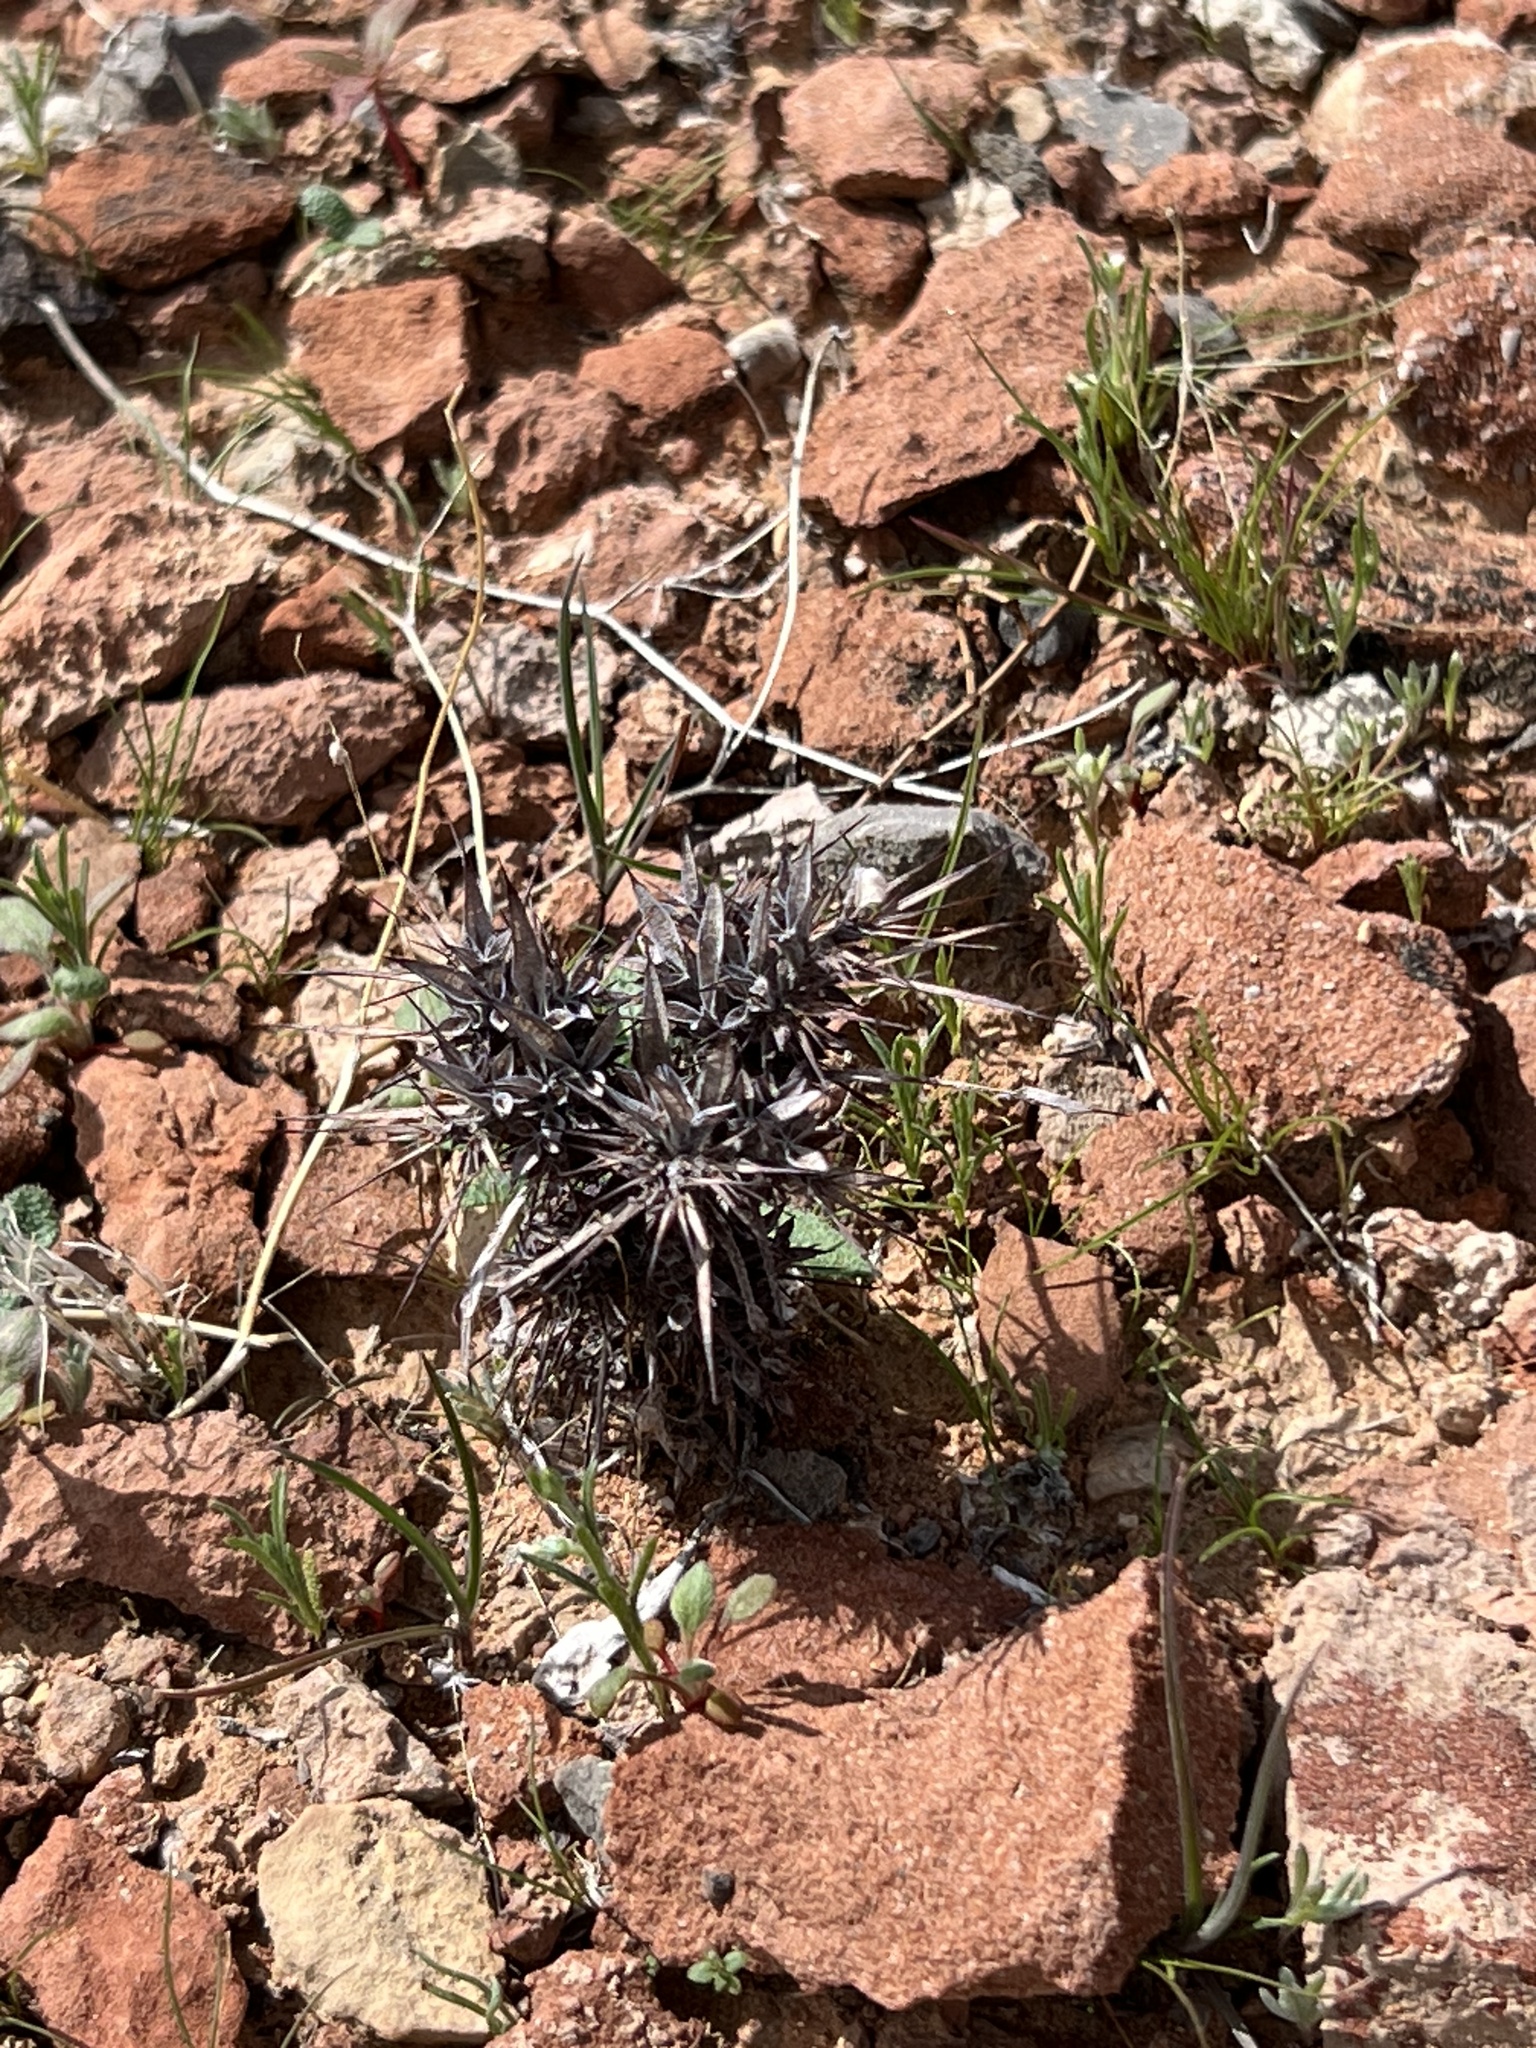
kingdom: Plantae
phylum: Tracheophyta
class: Magnoliopsida
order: Caryophyllales
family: Polygonaceae
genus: Chorizanthe
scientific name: Chorizanthe rigida
